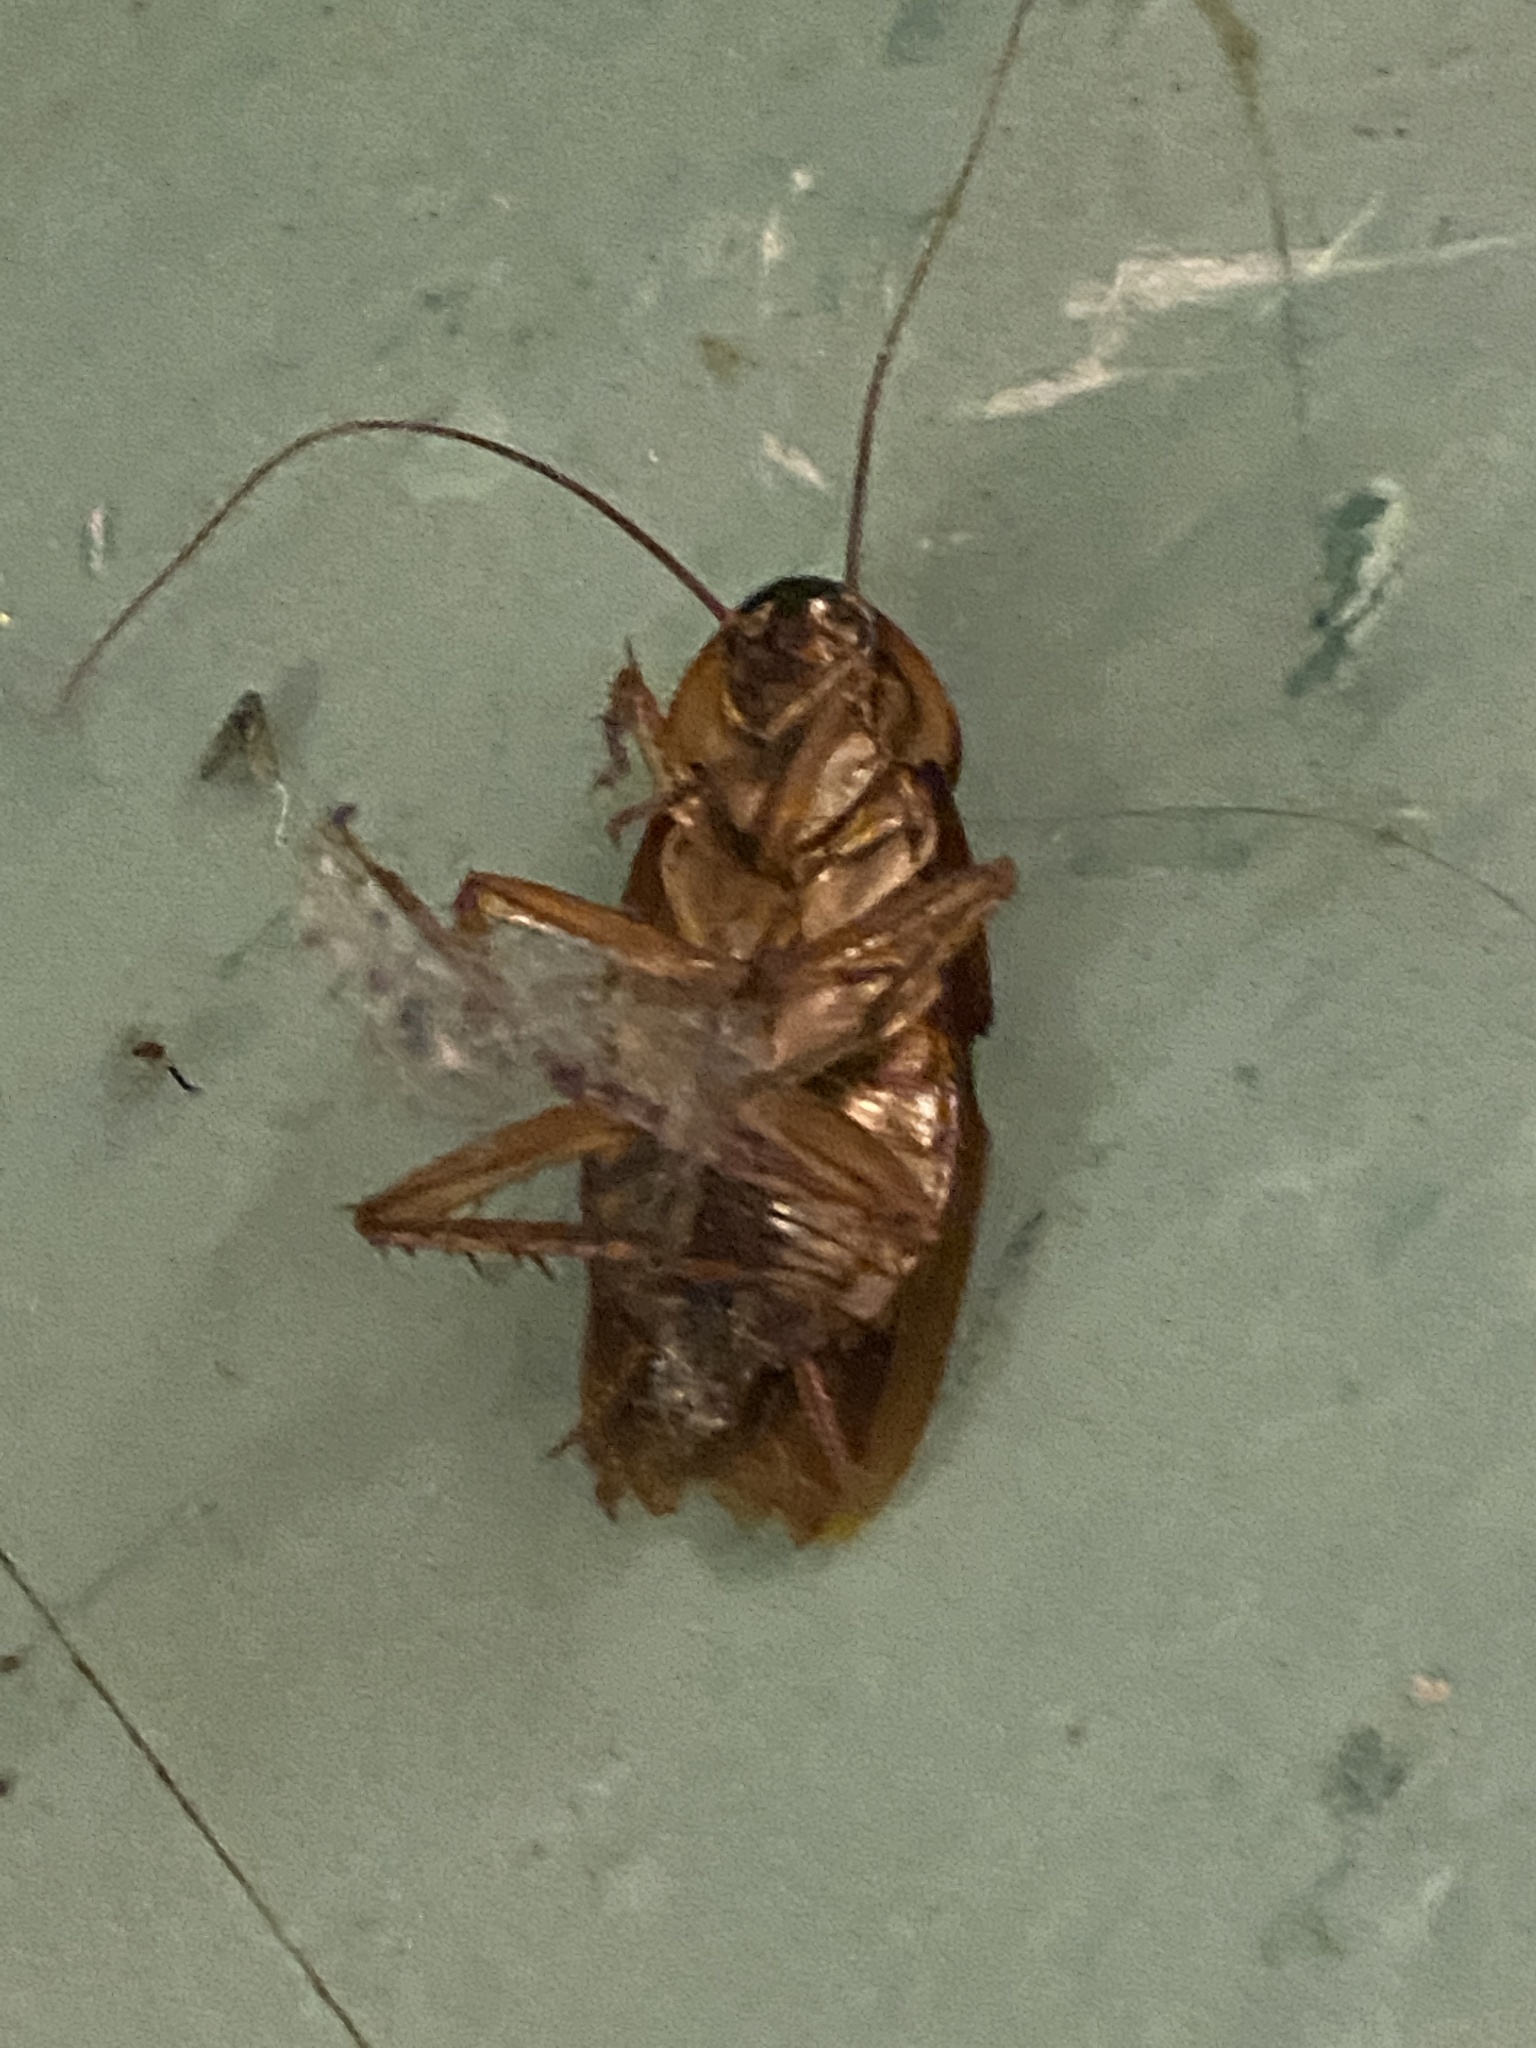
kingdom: Animalia
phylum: Arthropoda
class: Insecta
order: Blattodea
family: Blattidae
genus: Periplaneta
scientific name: Periplaneta americana
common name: American cockroach
